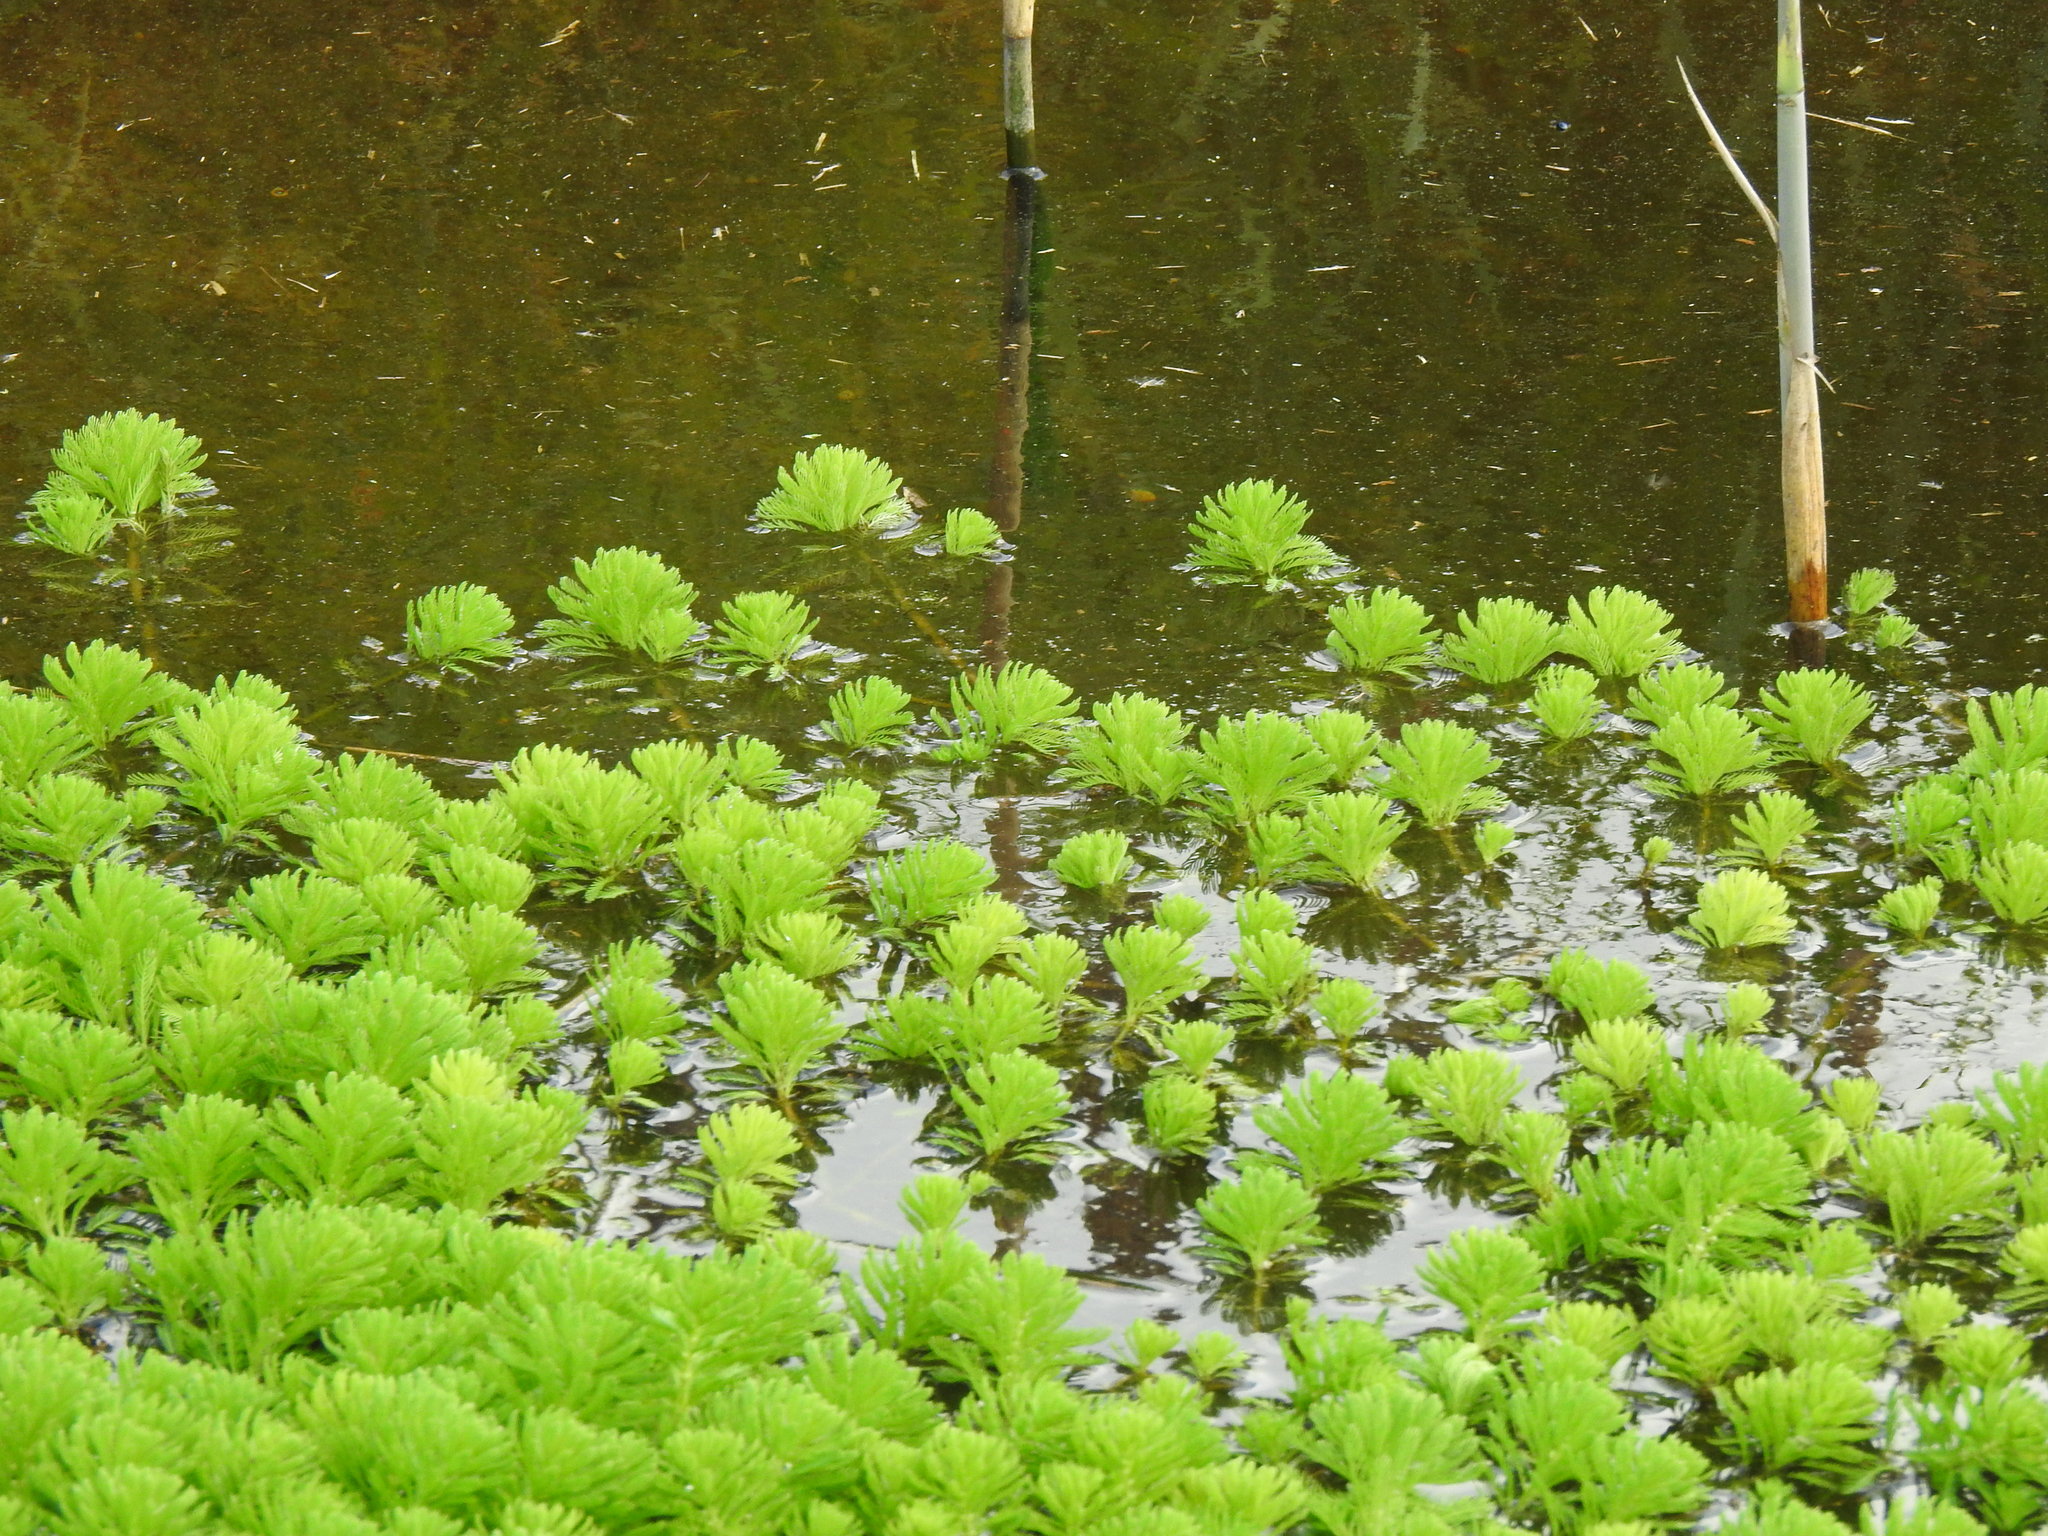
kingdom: Plantae
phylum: Tracheophyta
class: Magnoliopsida
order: Saxifragales
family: Haloragaceae
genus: Myriophyllum
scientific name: Myriophyllum aquaticum
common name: Parrot's feather
